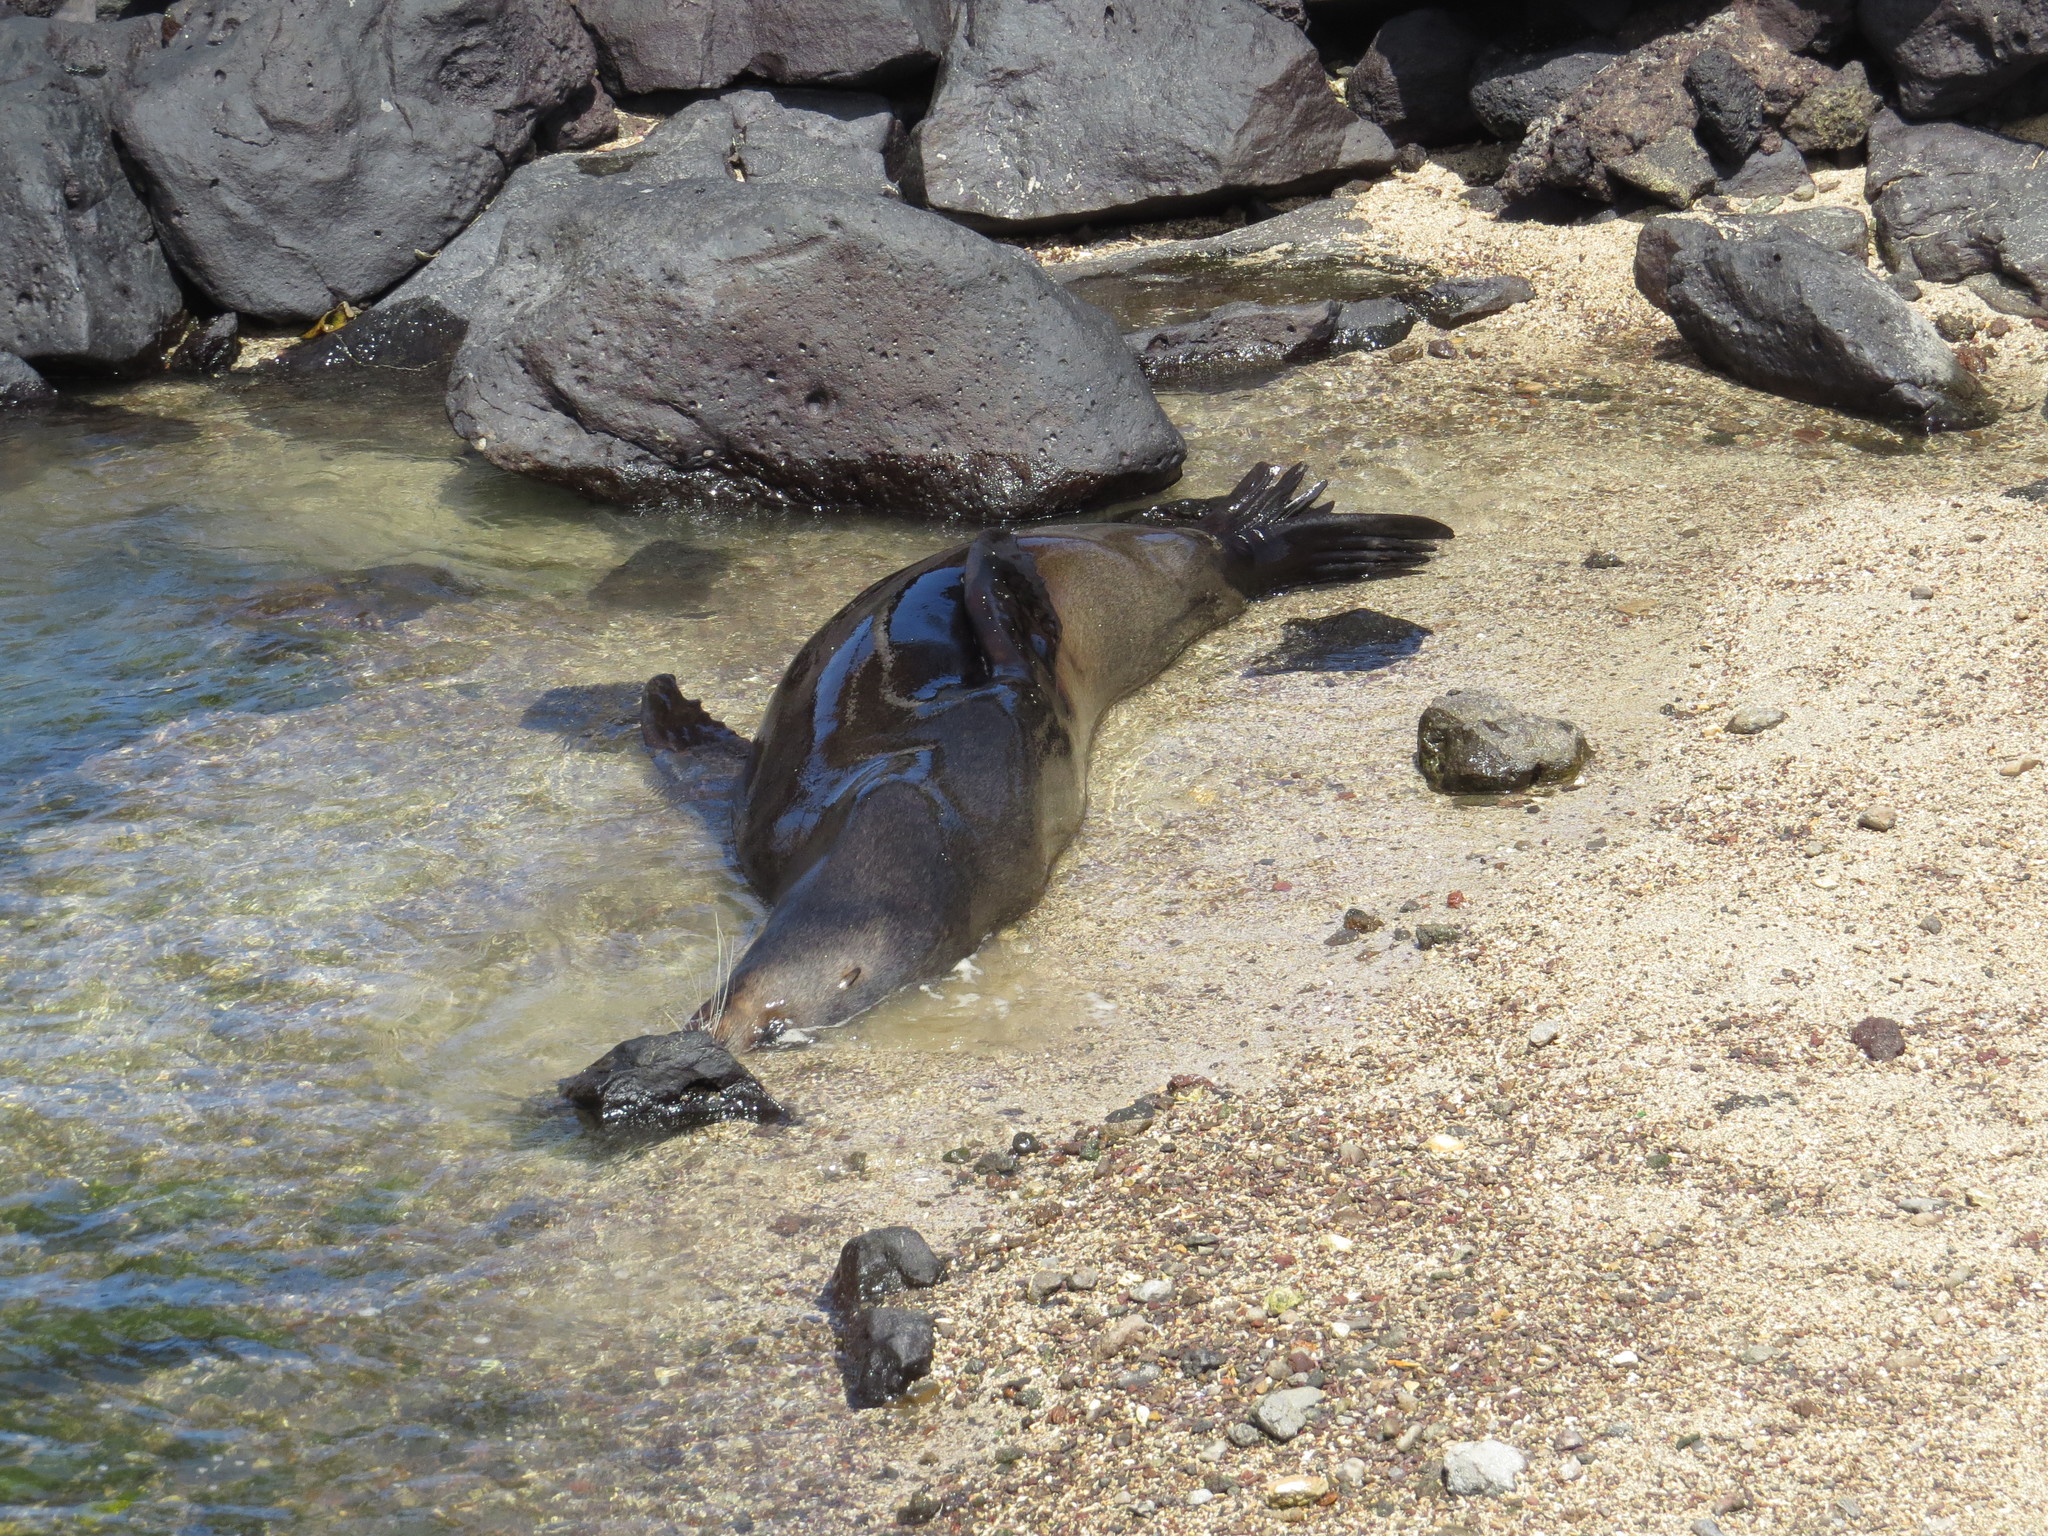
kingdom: Animalia
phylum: Chordata
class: Mammalia
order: Carnivora
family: Otariidae
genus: Zalophus
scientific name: Zalophus wollebaeki
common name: Galapagos sea lion
